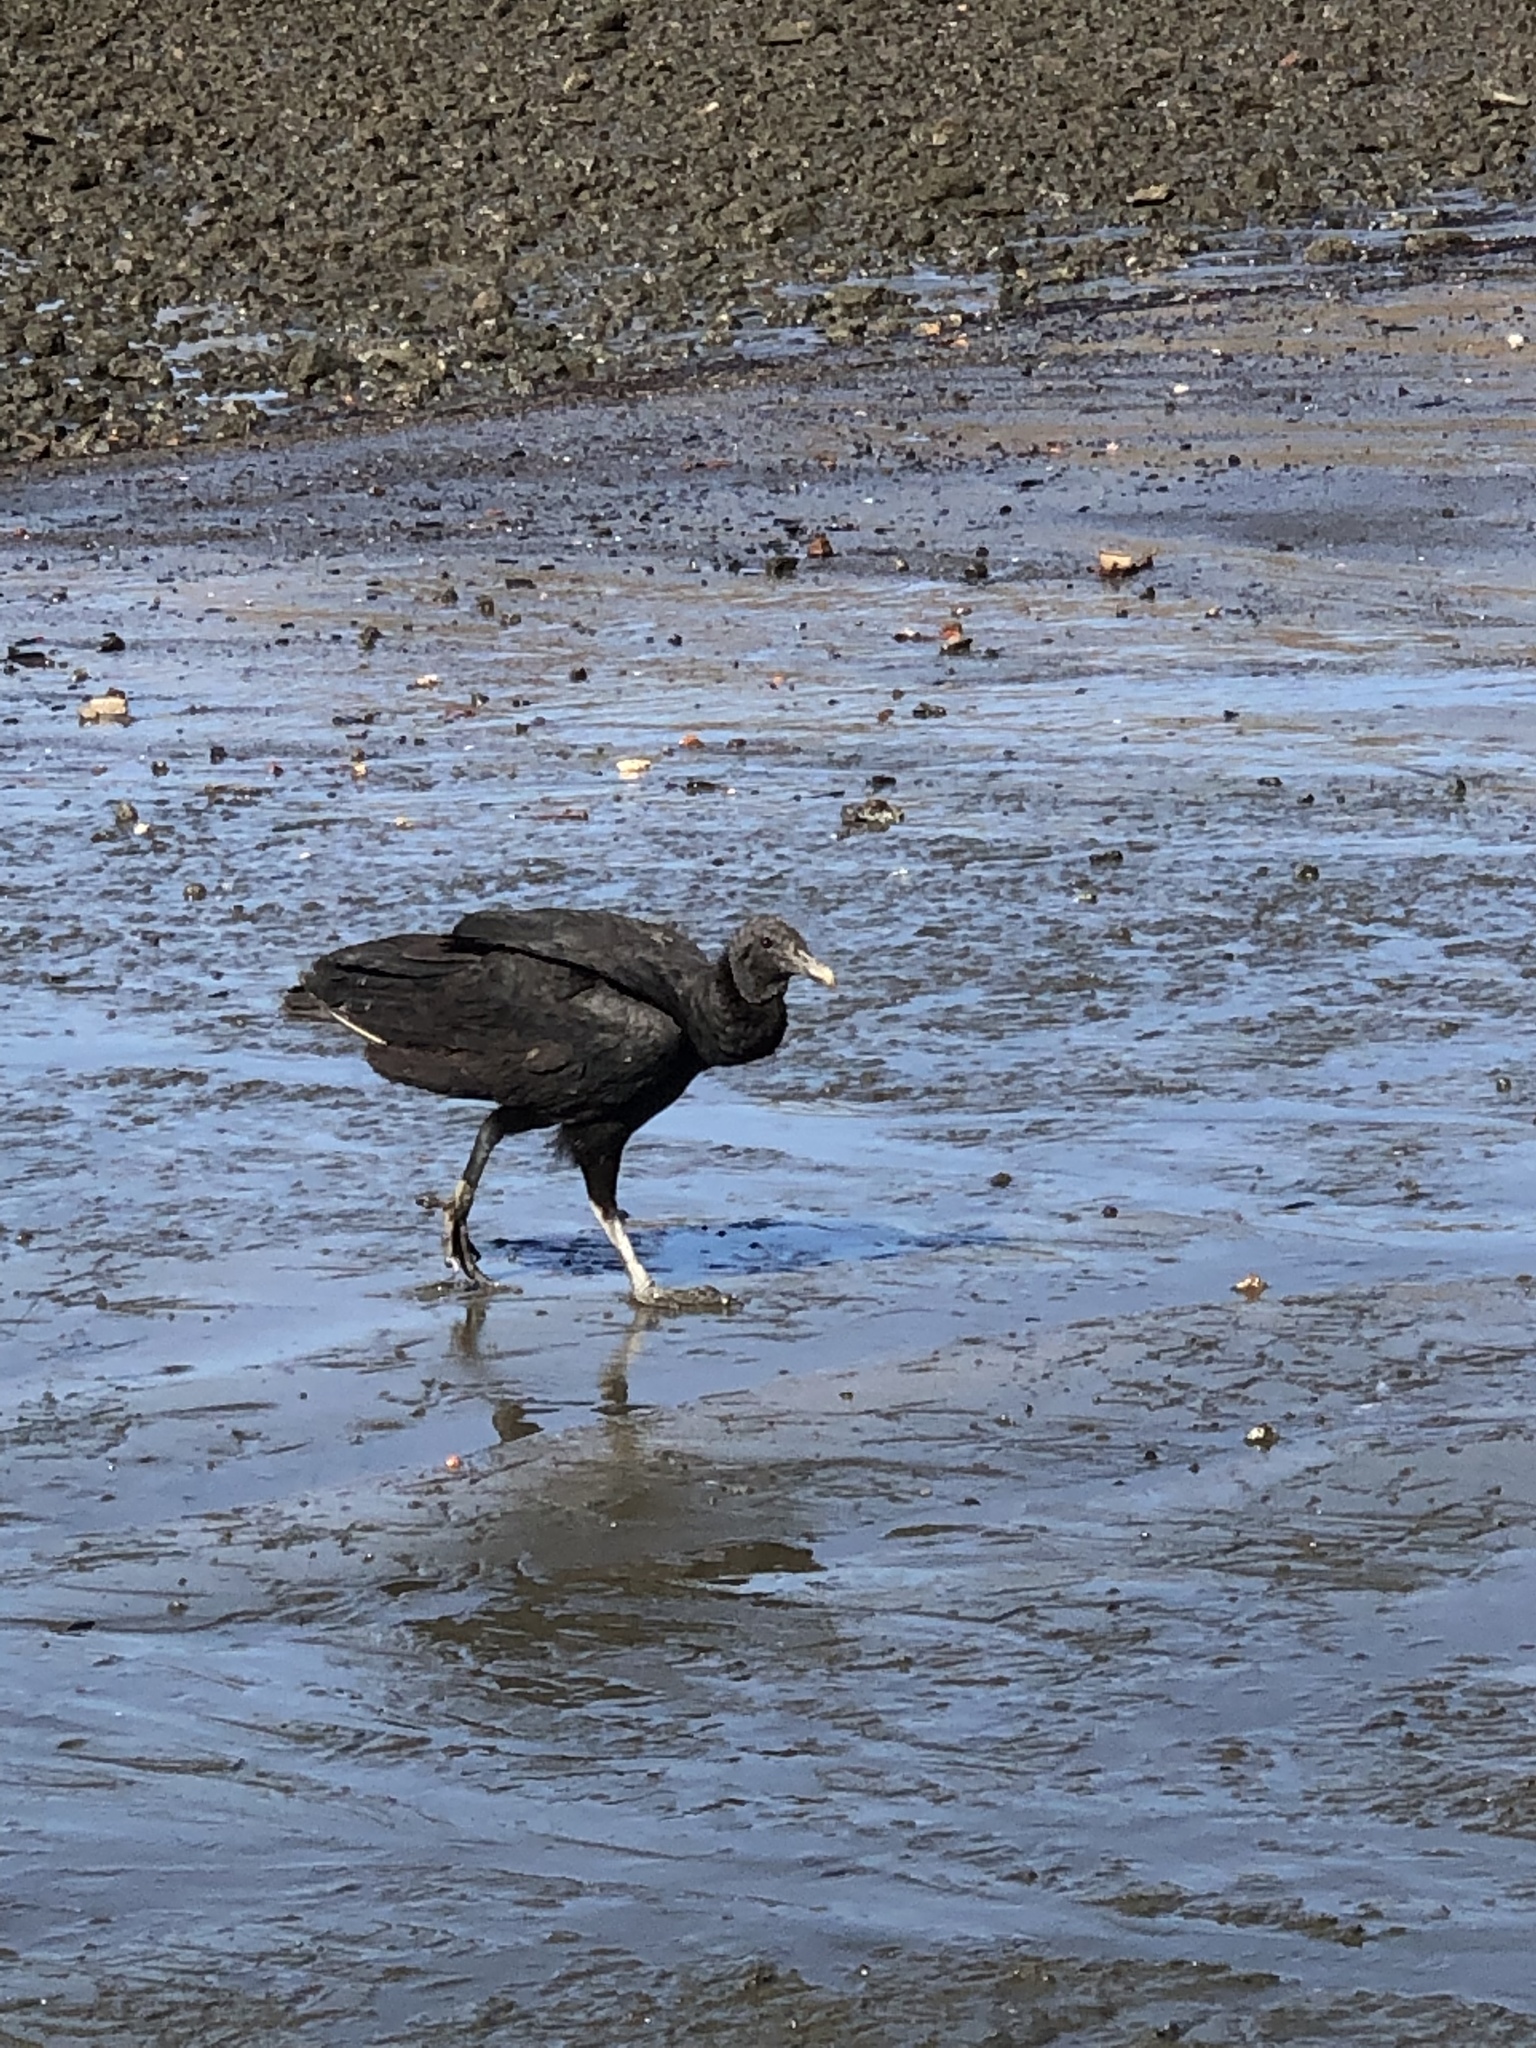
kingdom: Animalia
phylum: Chordata
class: Aves
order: Accipitriformes
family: Cathartidae
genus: Coragyps
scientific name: Coragyps atratus
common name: Black vulture
